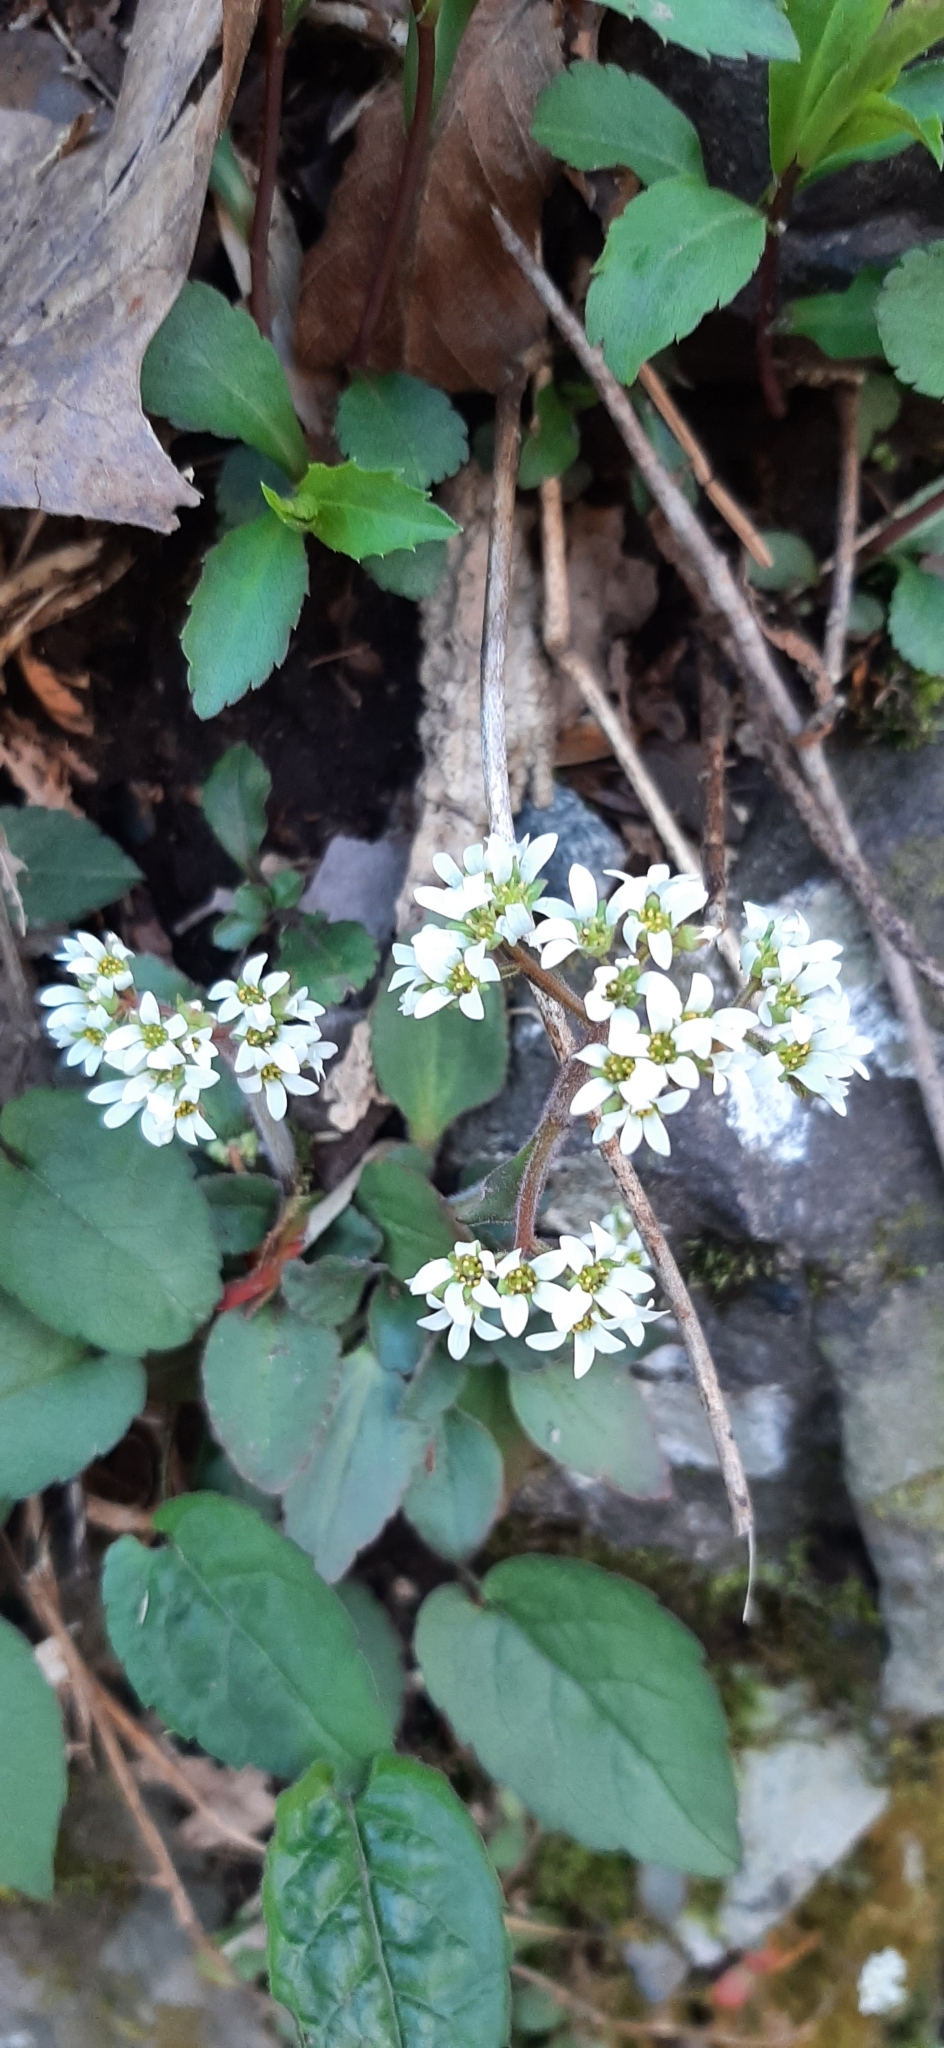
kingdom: Plantae
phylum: Tracheophyta
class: Magnoliopsida
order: Saxifragales
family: Saxifragaceae
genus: Micranthes
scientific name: Micranthes virginiensis
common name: Early saxifrage
